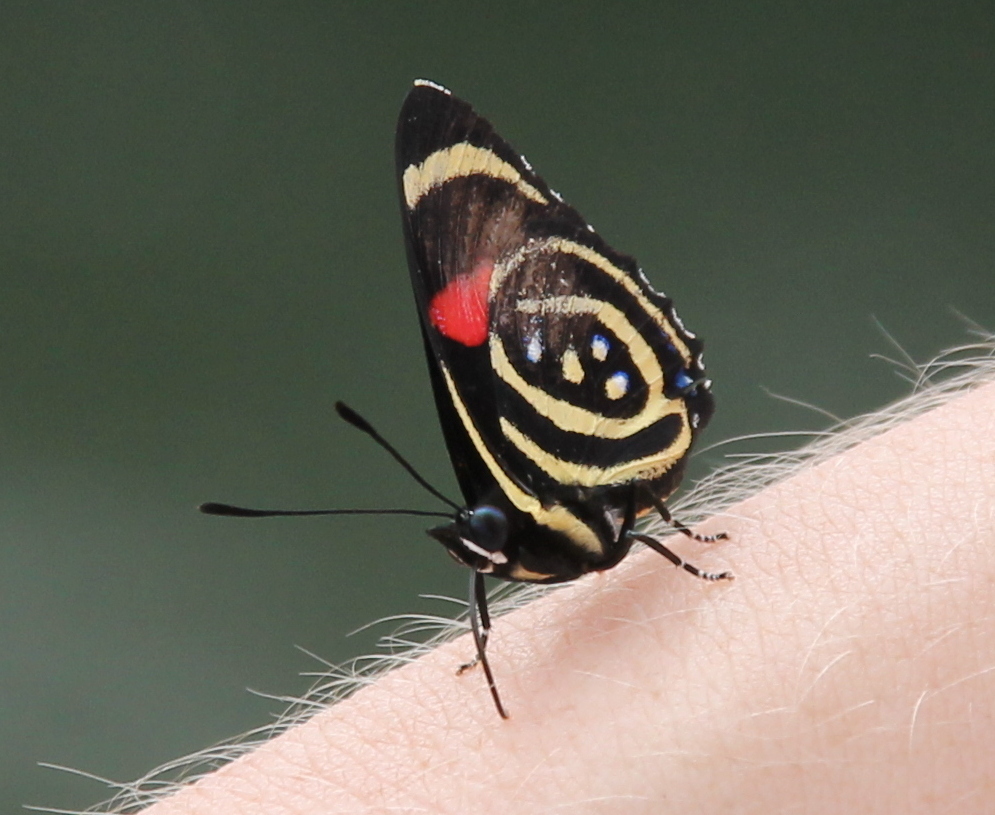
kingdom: Animalia
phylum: Arthropoda
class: Insecta
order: Lepidoptera
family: Nymphalidae
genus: Catagramma
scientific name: Catagramma Callicore hydaspes
